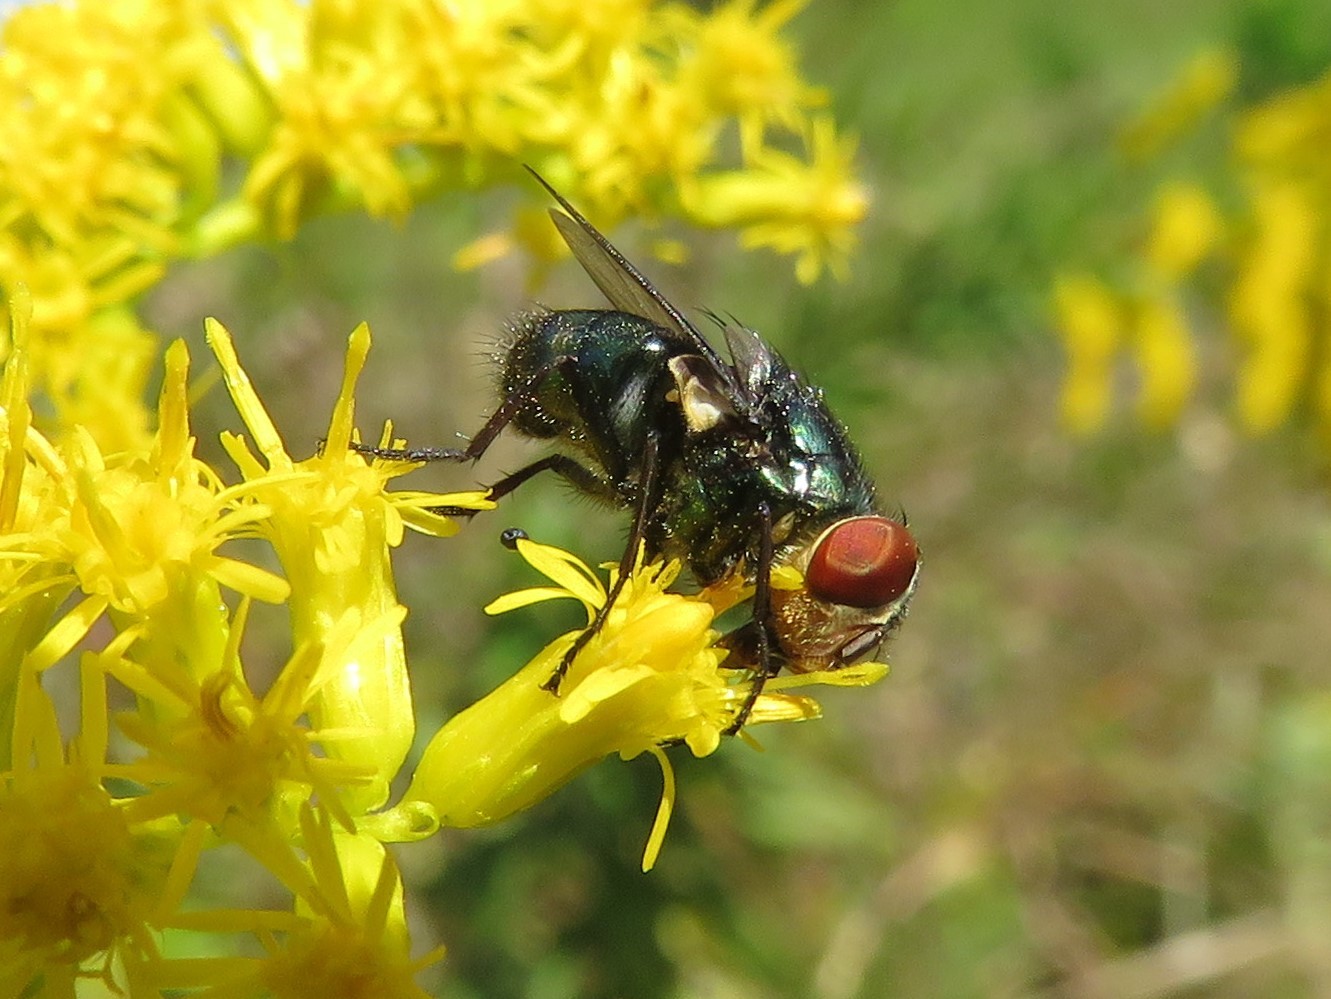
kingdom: Animalia
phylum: Arthropoda
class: Insecta
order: Diptera
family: Calliphoridae
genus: Chrysomya
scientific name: Chrysomya megacephala
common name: Blow fly
